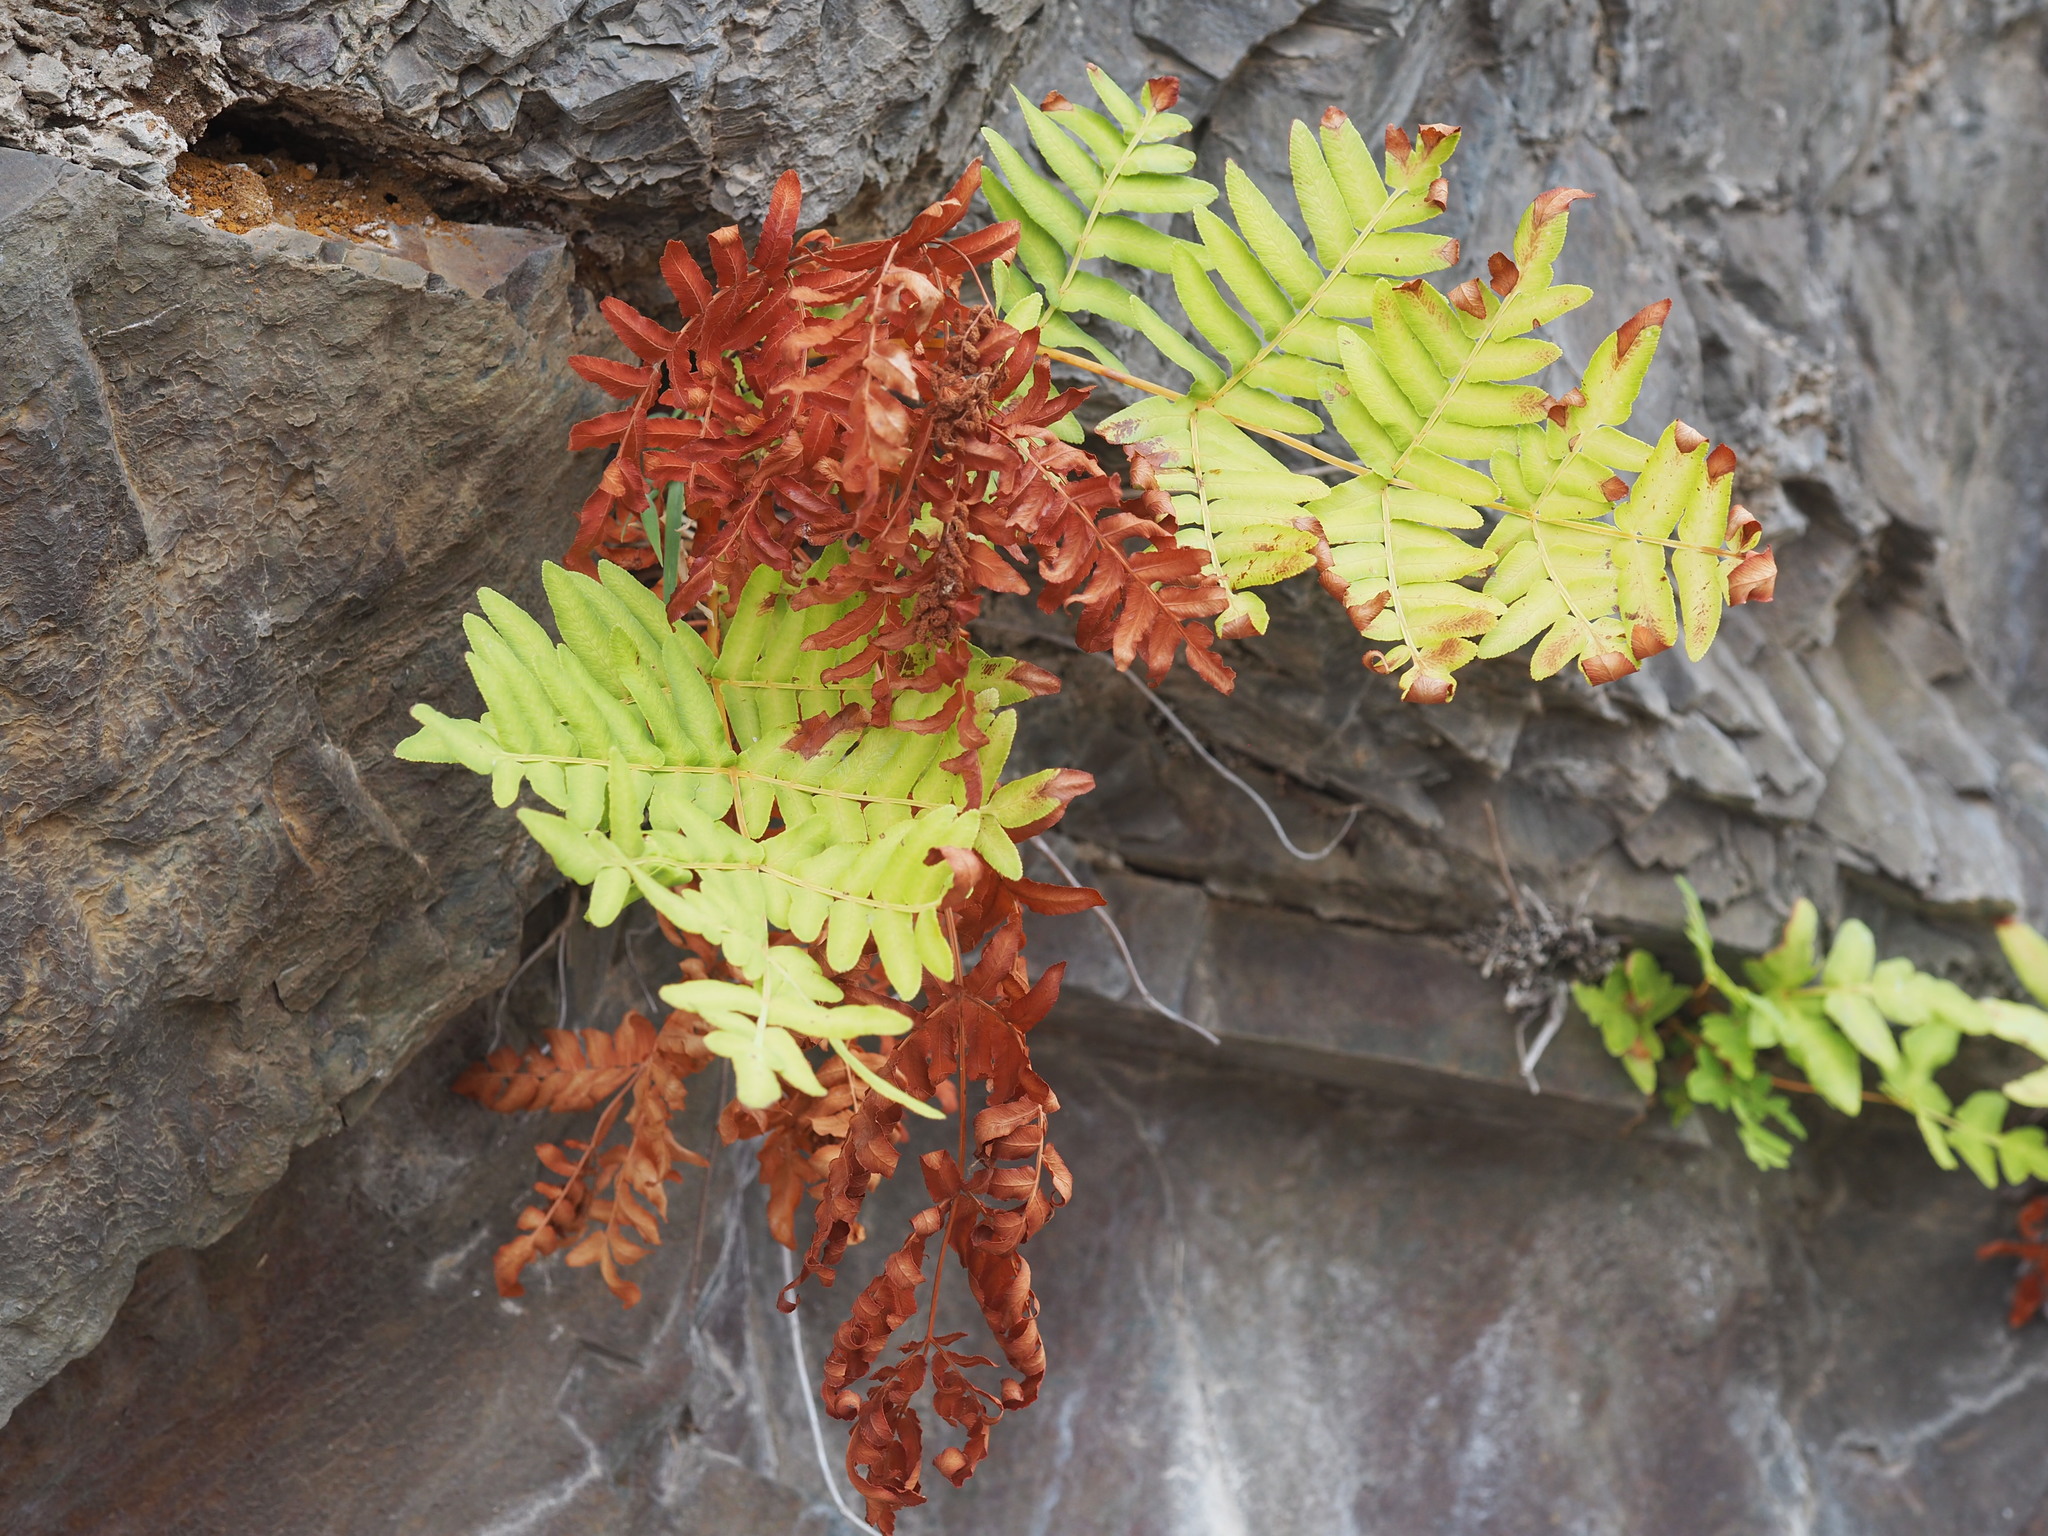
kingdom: Plantae
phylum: Tracheophyta
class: Polypodiopsida
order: Osmundales
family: Osmundaceae
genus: Osmunda
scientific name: Osmunda regalis
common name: Royal fern
